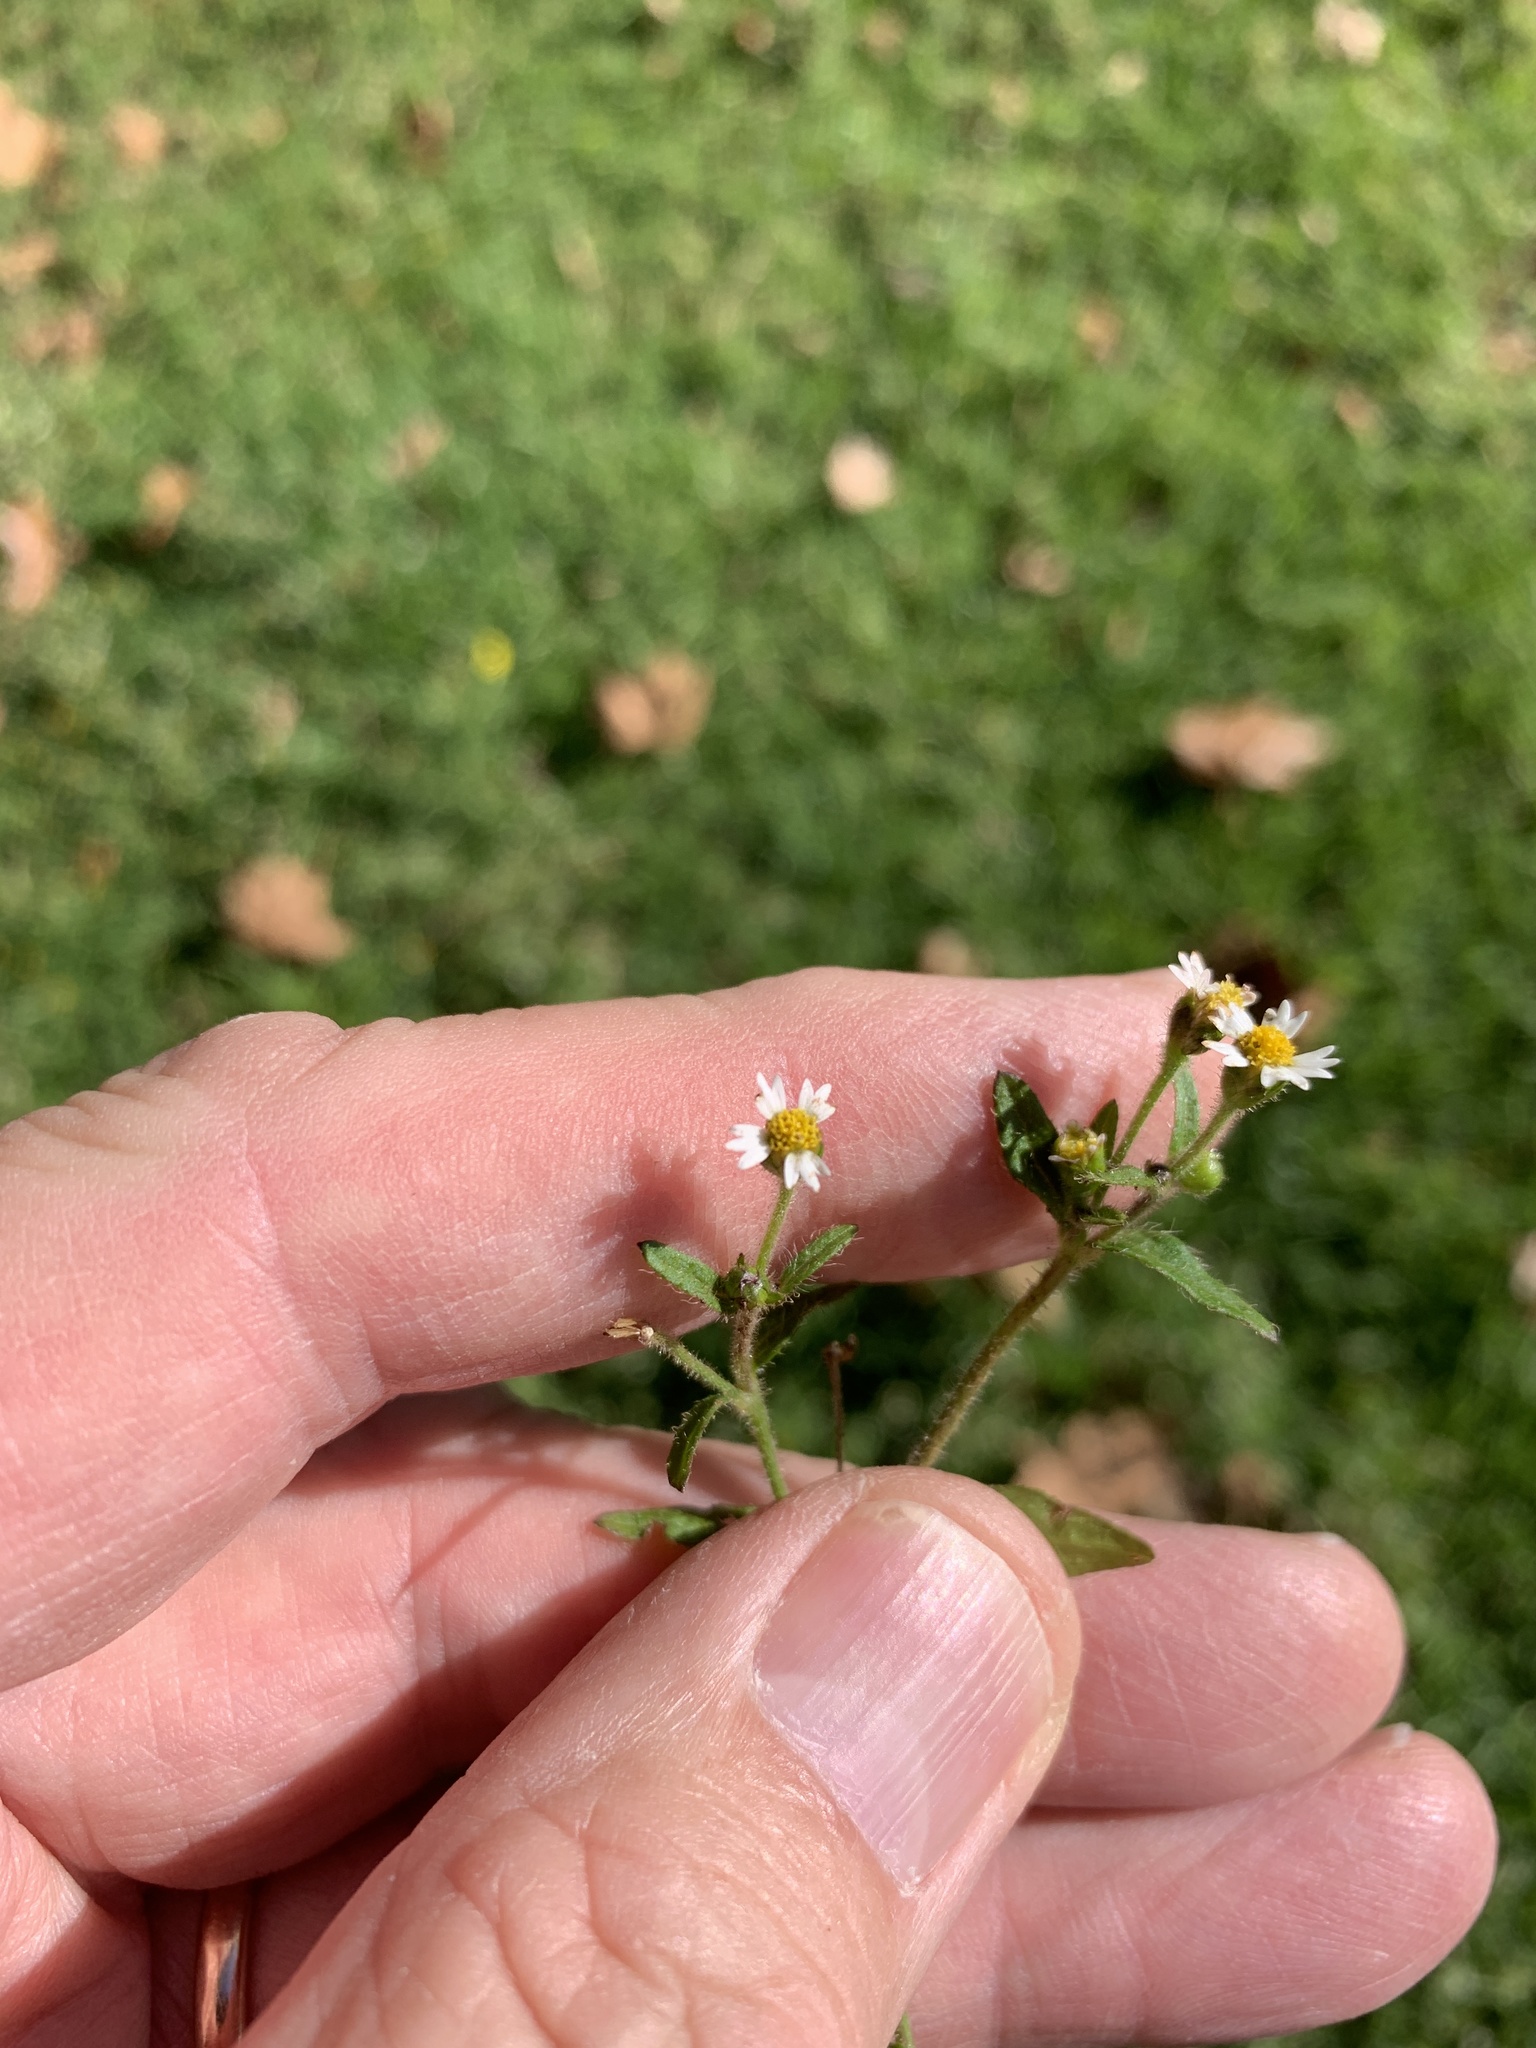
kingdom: Plantae
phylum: Tracheophyta
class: Magnoliopsida
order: Asterales
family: Asteraceae
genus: Galinsoga
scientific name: Galinsoga quadriradiata
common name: Shaggy soldier
